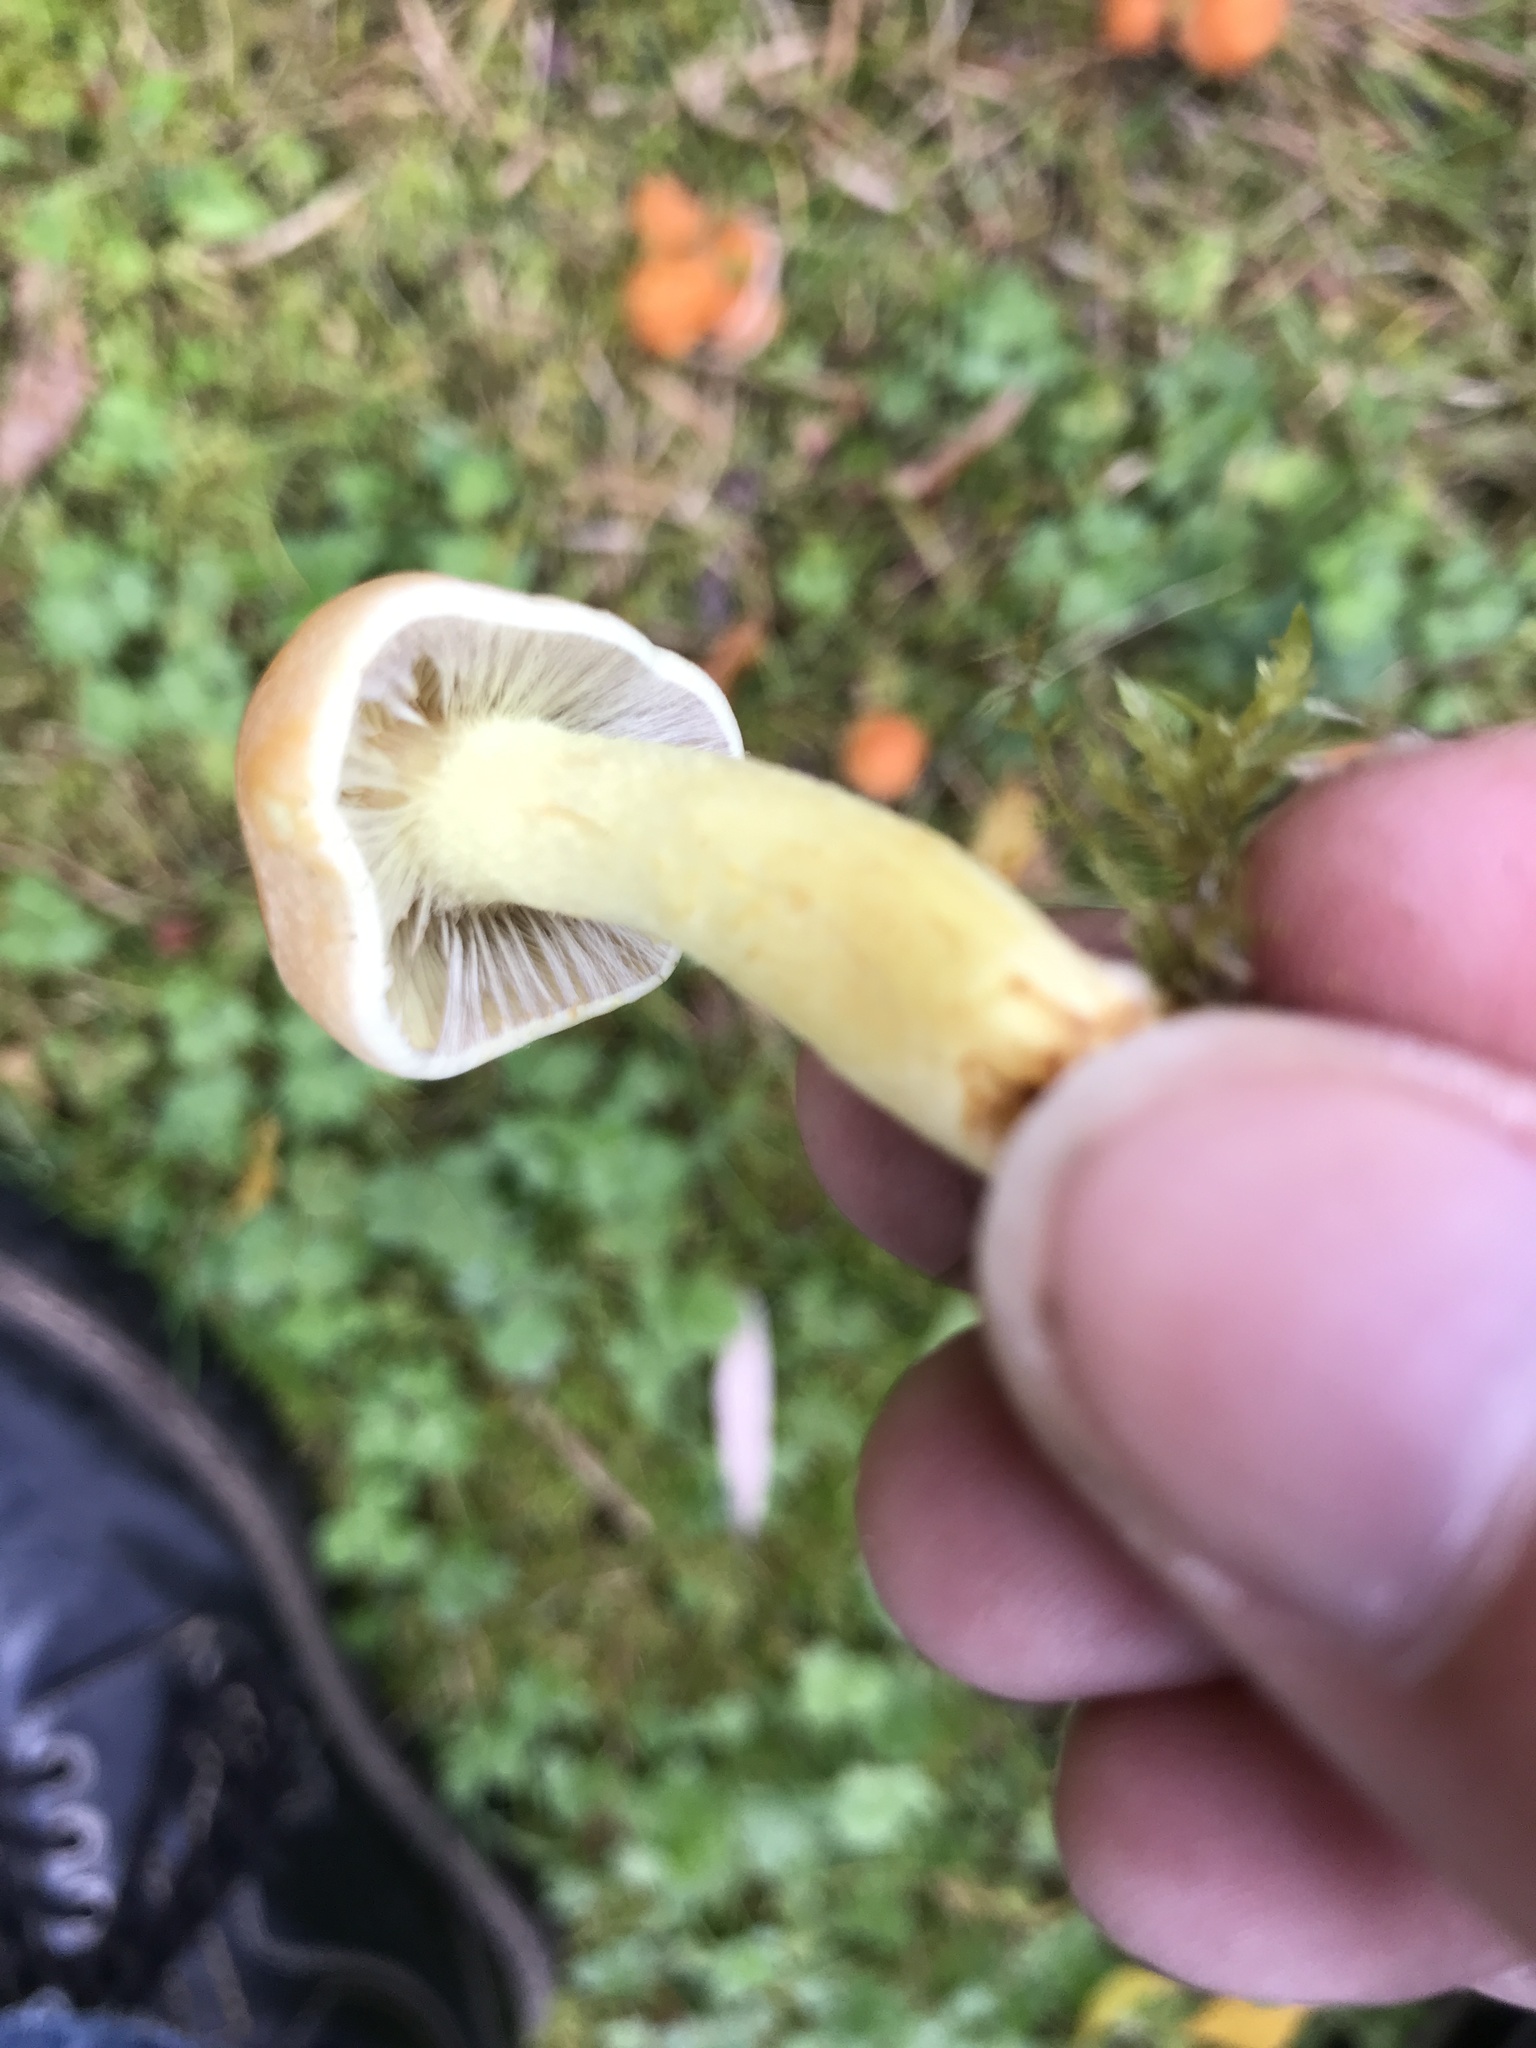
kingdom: Fungi
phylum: Basidiomycota
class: Agaricomycetes
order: Agaricales
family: Strophariaceae
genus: Hypholoma
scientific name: Hypholoma fasciculare
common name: Sulphur tuft
